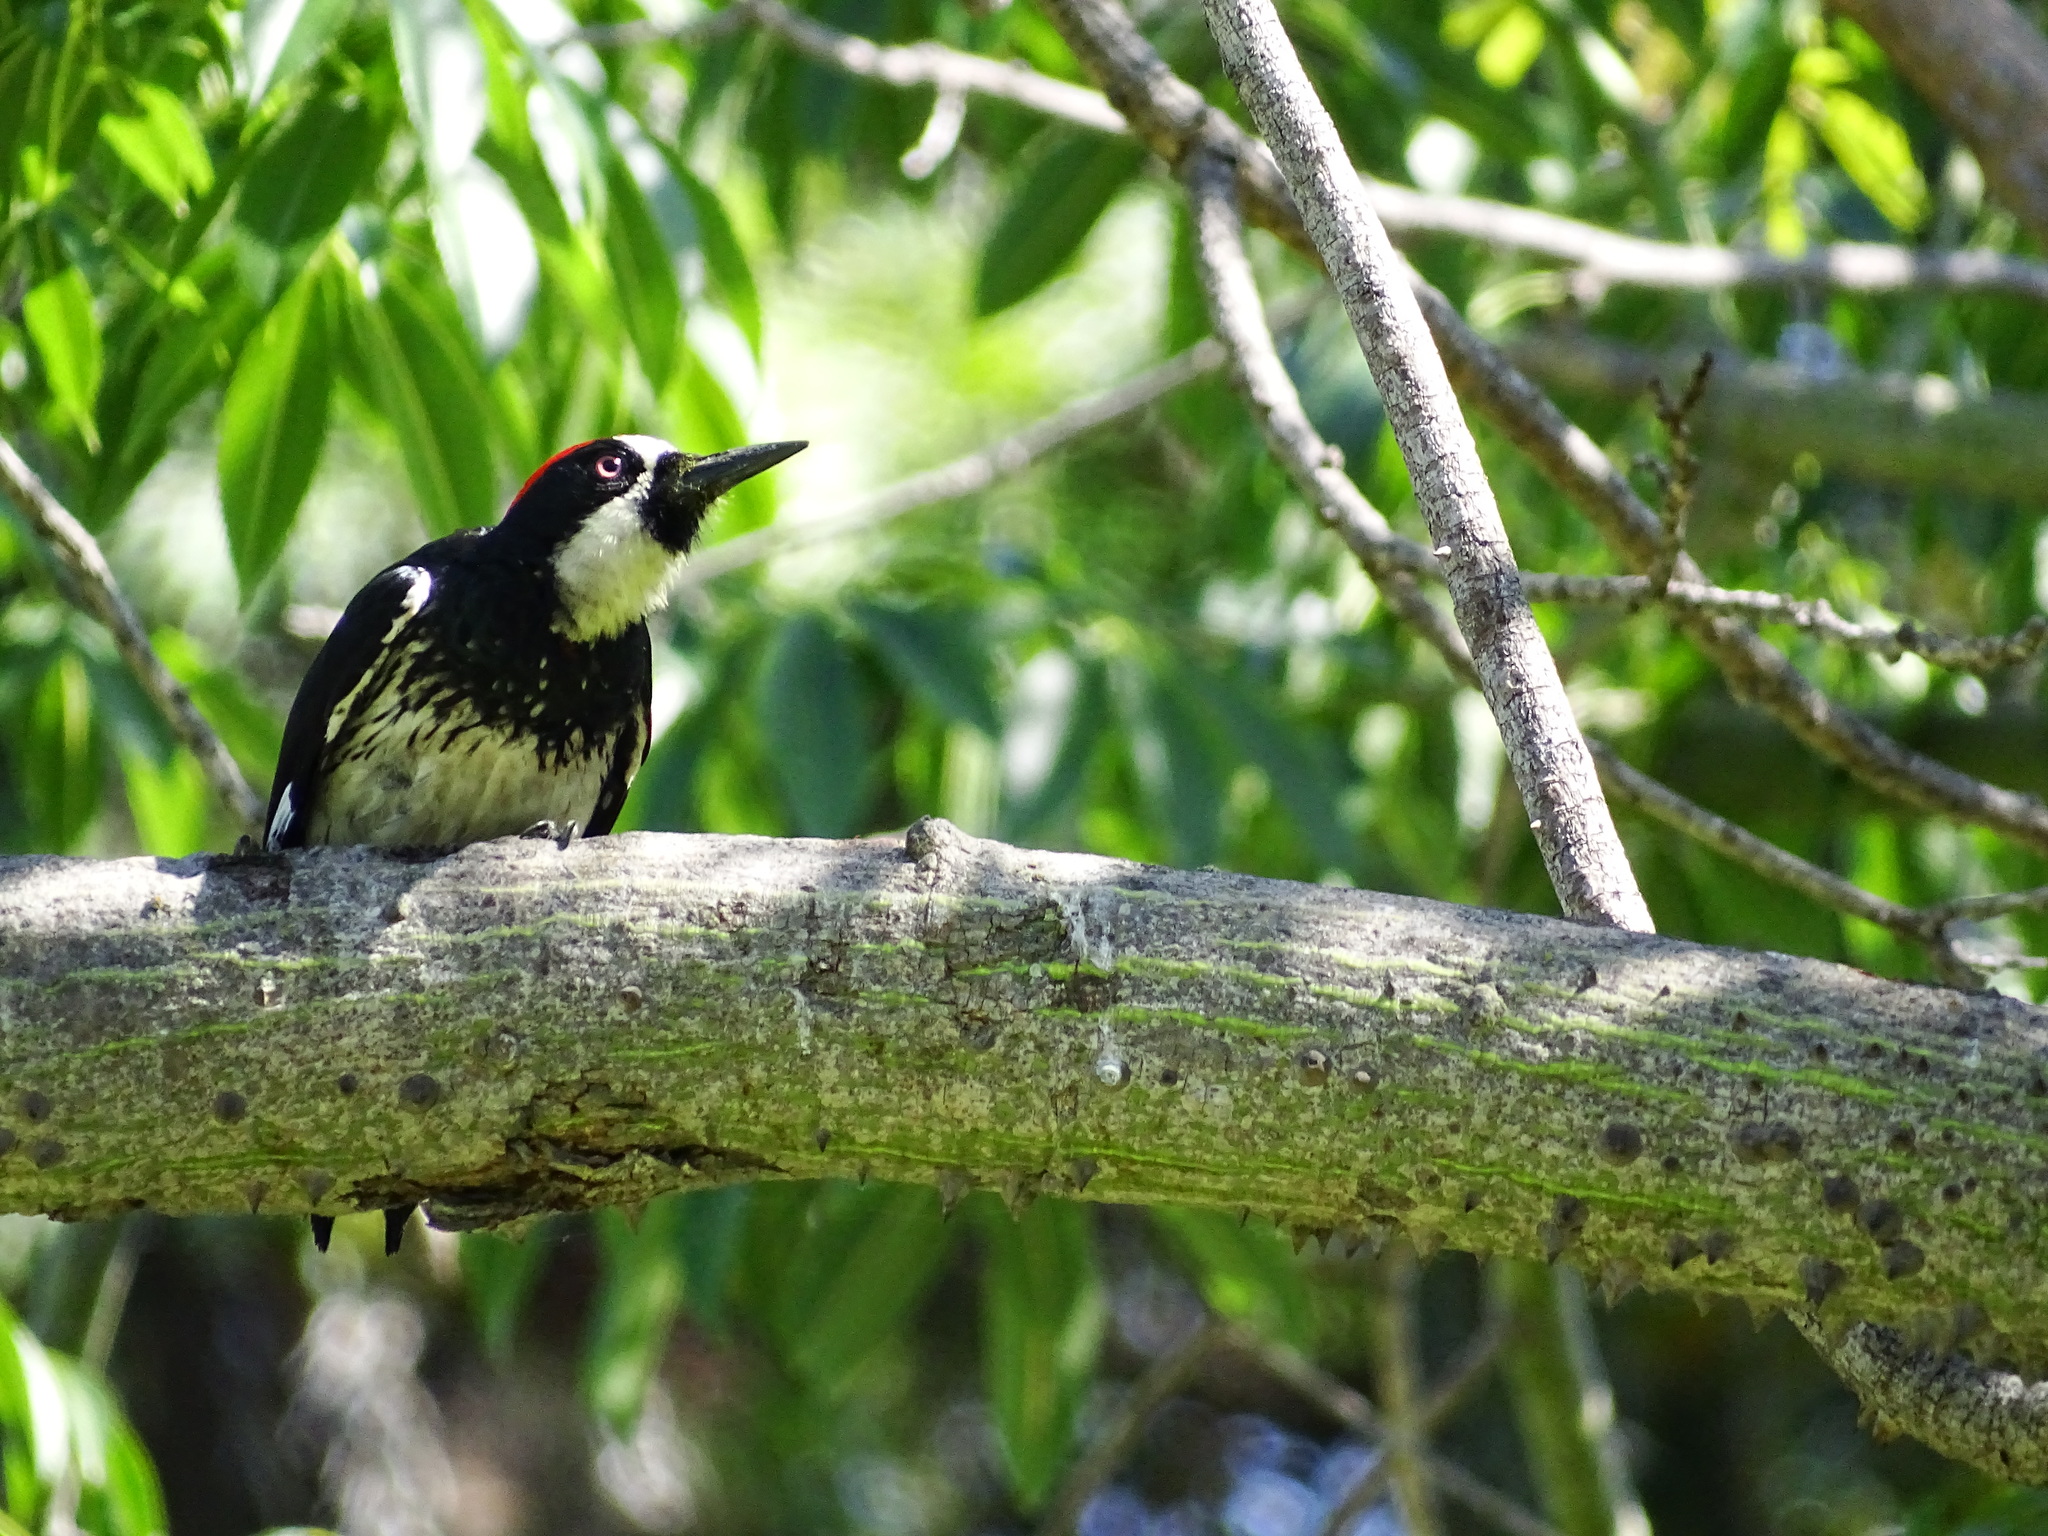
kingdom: Animalia
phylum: Chordata
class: Aves
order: Piciformes
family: Picidae
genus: Melanerpes
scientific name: Melanerpes formicivorus
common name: Acorn woodpecker
